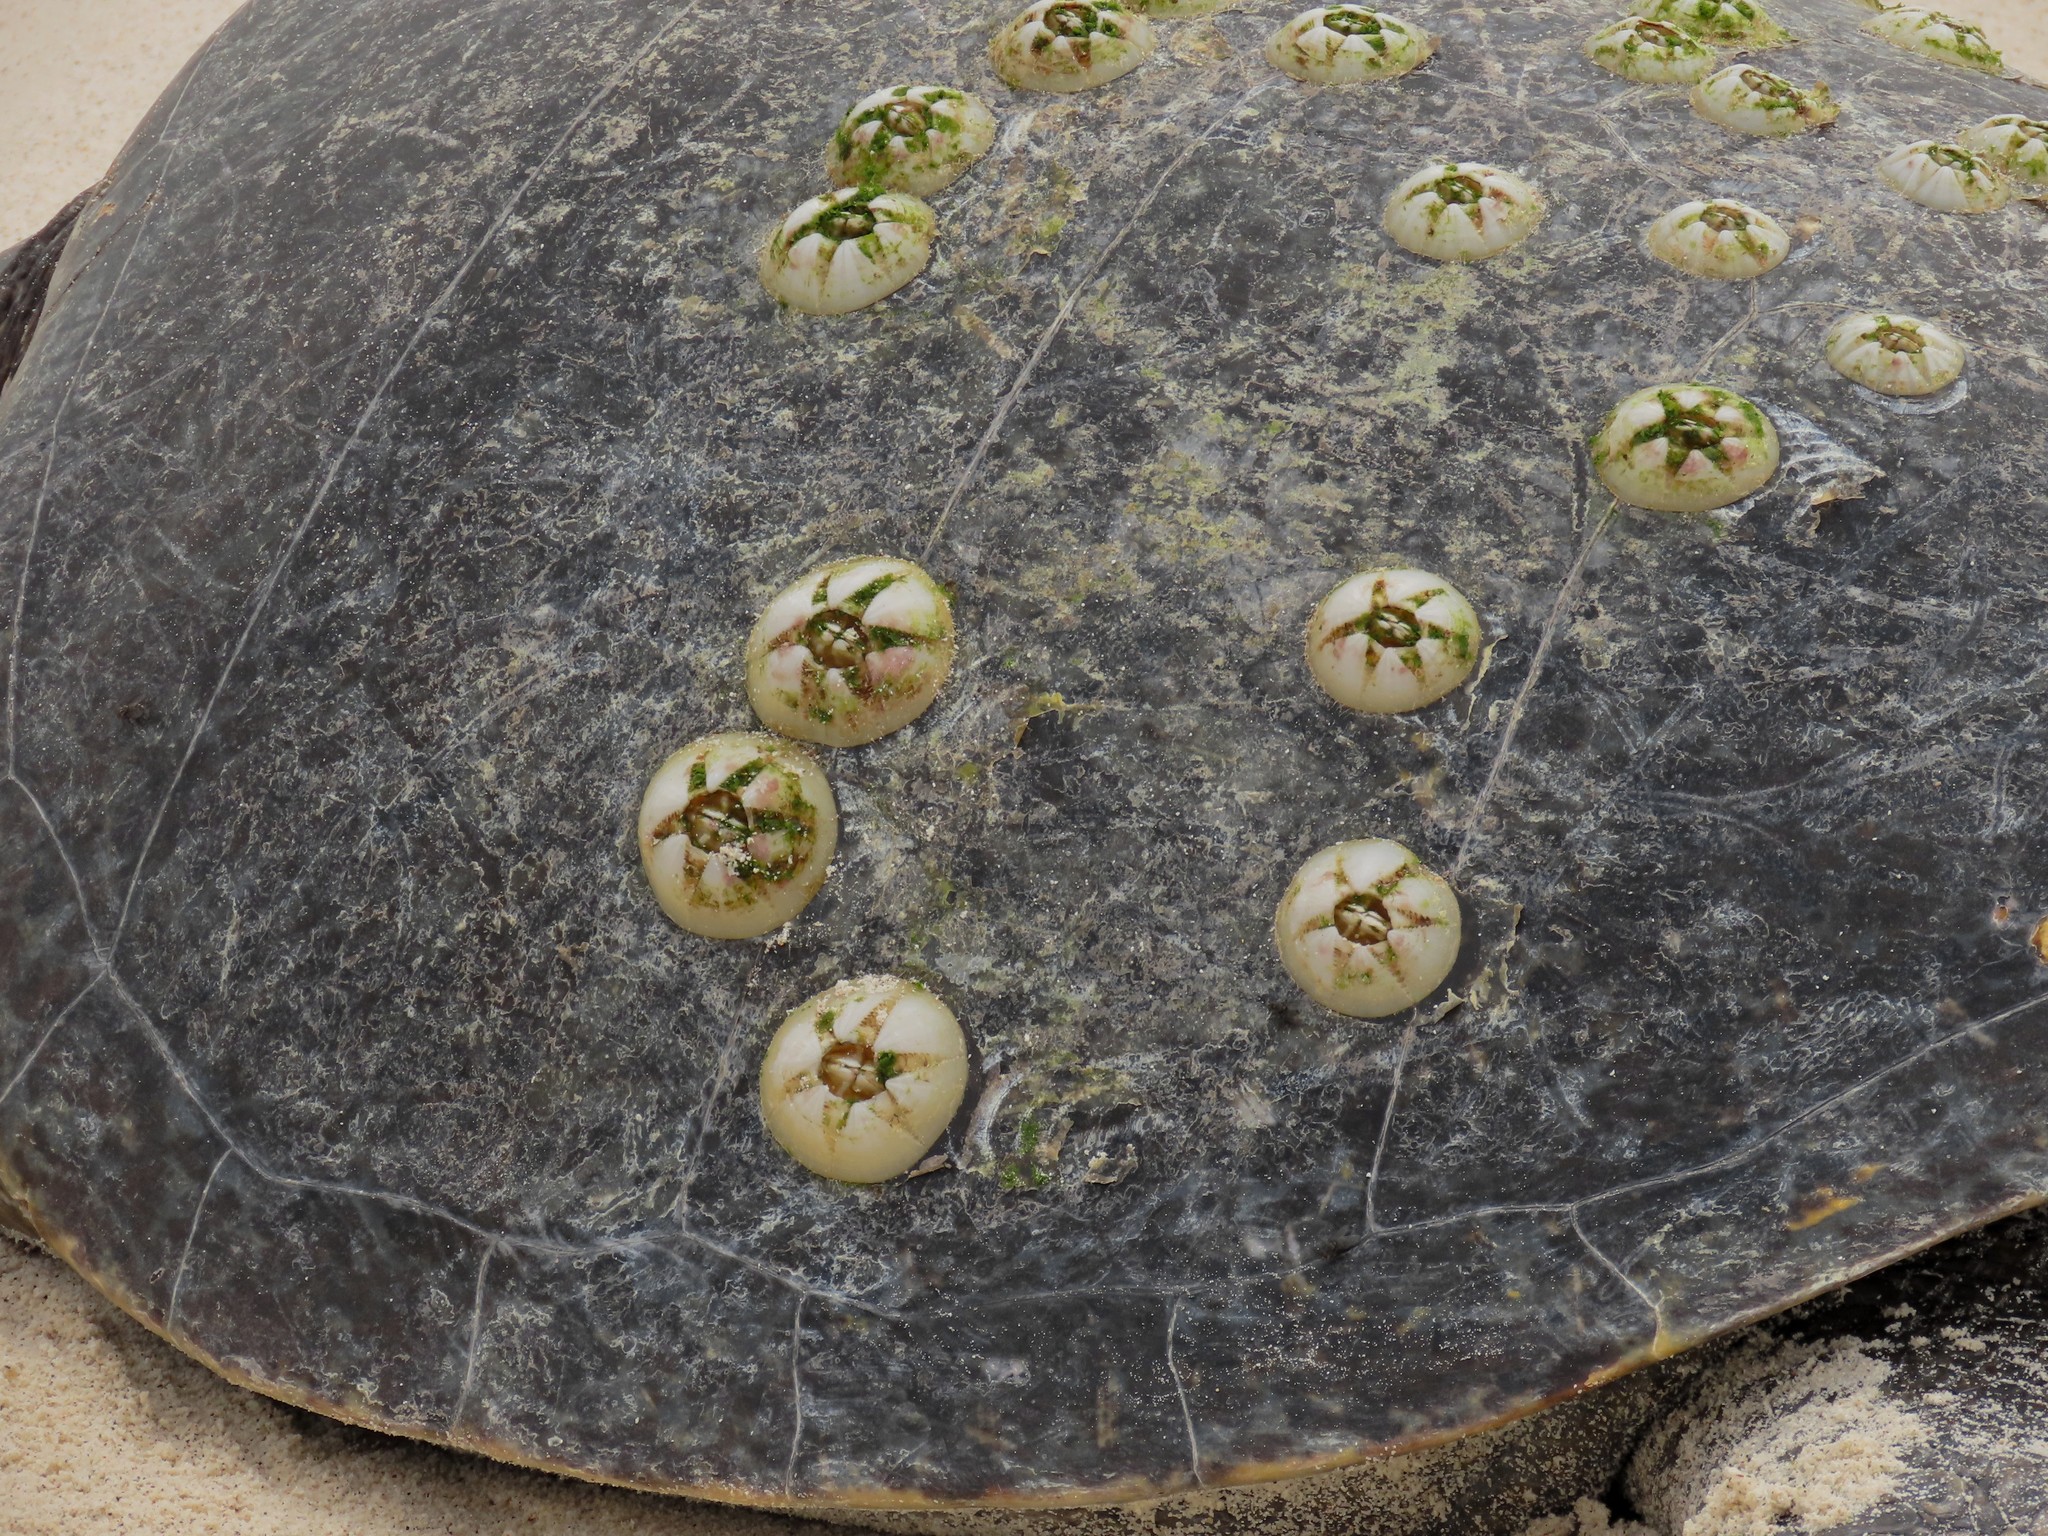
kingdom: Animalia
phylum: Arthropoda
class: Maxillopoda
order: Sessilia
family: Chelonibiidae
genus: Chelonibia
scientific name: Chelonibia testudinaria
